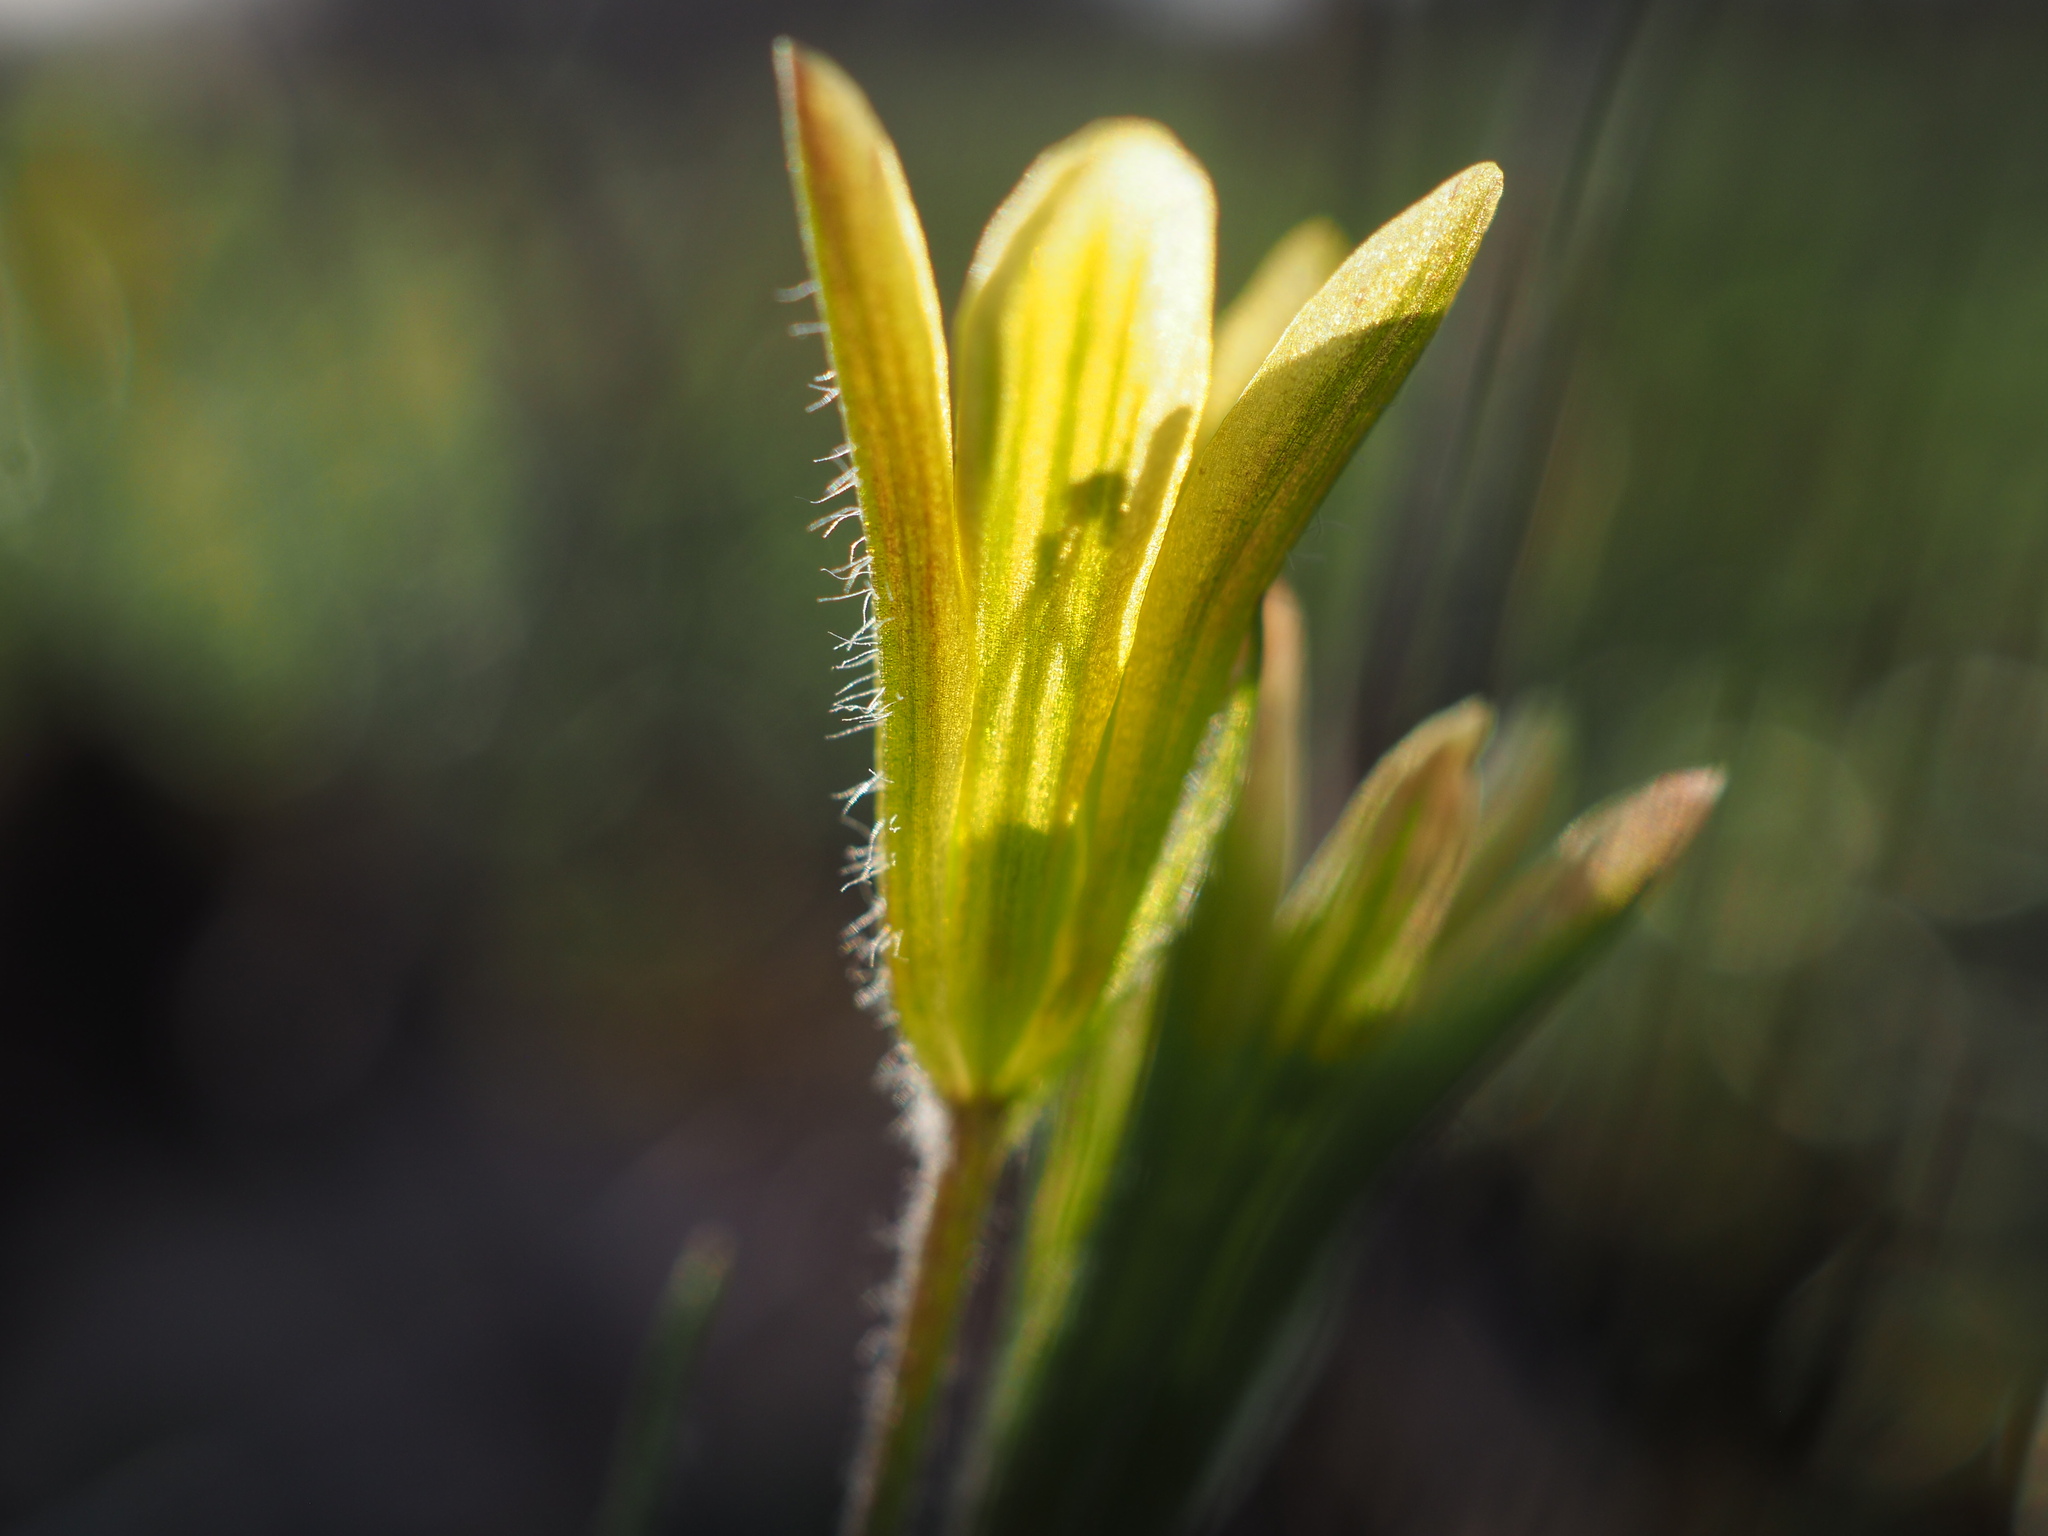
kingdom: Plantae
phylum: Tracheophyta
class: Liliopsida
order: Liliales
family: Liliaceae
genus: Gagea
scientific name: Gagea bohemica
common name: Early star-of-bethlehem
